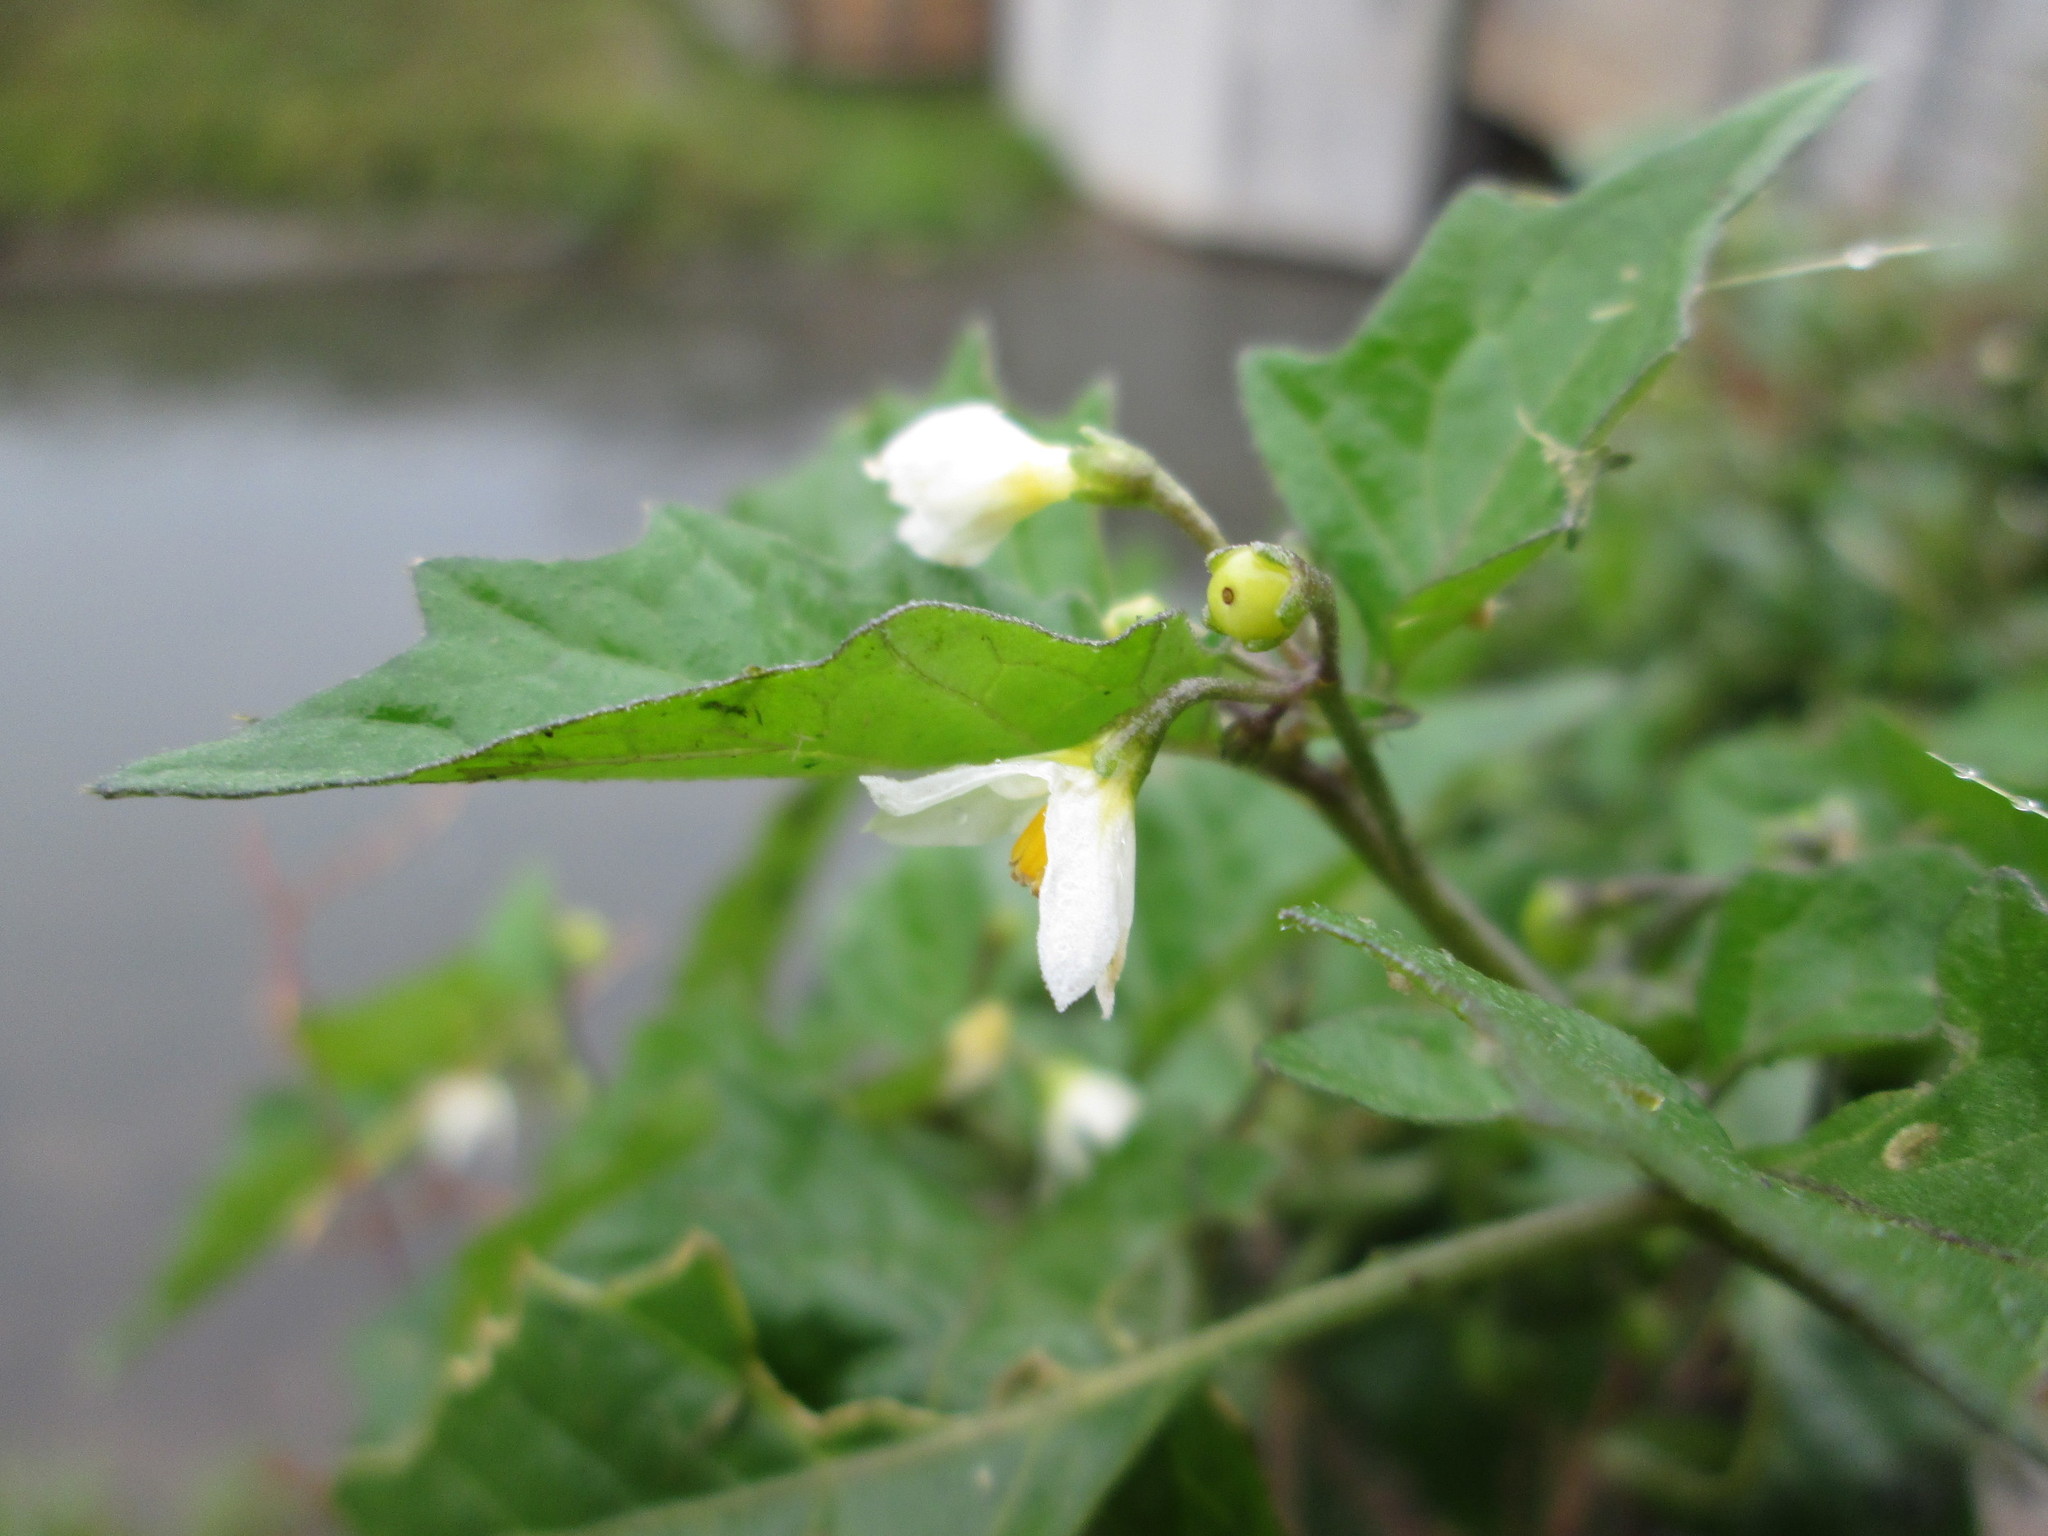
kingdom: Plantae
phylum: Tracheophyta
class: Magnoliopsida
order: Solanales
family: Solanaceae
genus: Solanum
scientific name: Solanum nigrum
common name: Black nightshade
